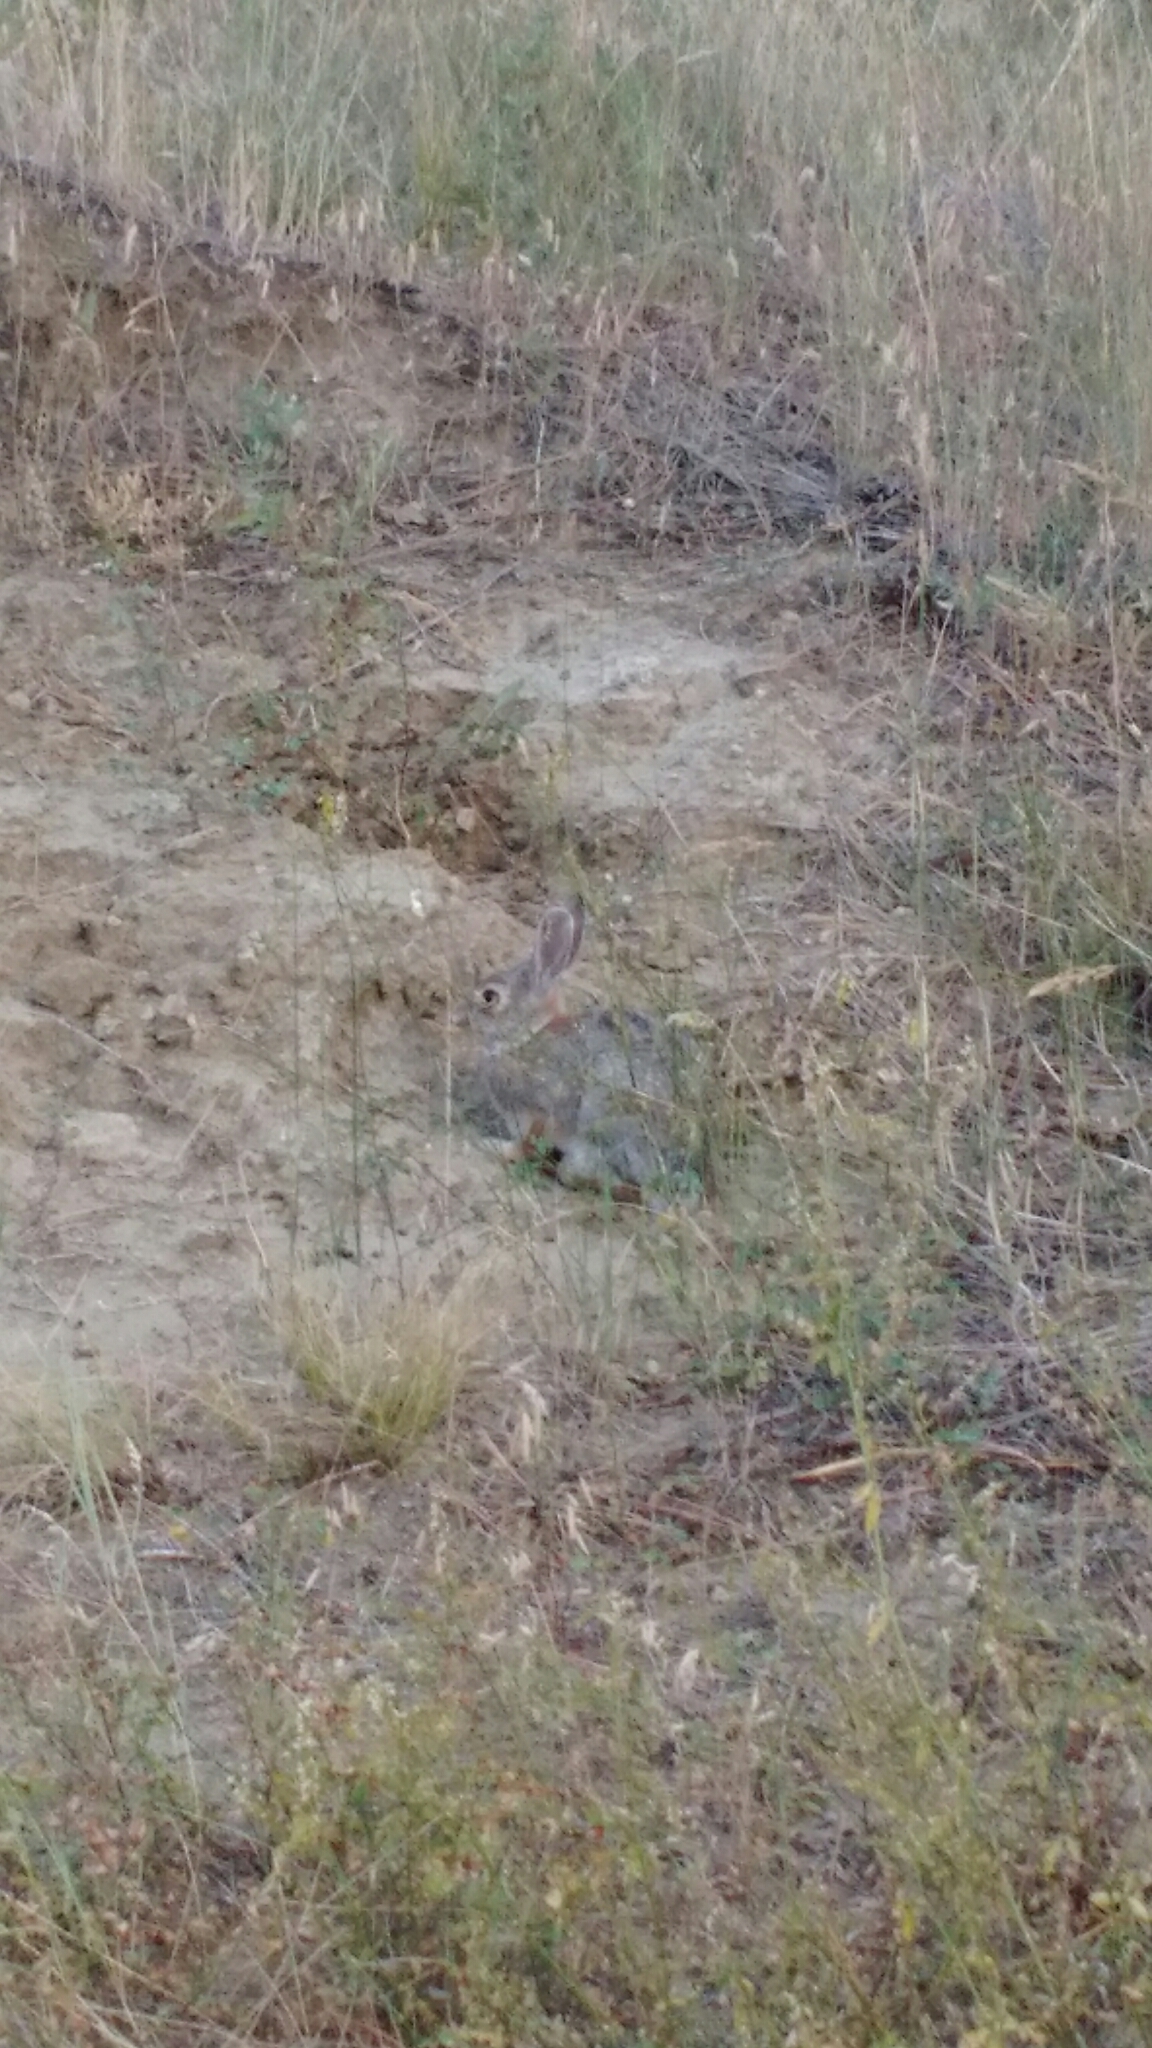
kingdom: Animalia
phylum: Chordata
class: Mammalia
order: Lagomorpha
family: Leporidae
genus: Sylvilagus
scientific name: Sylvilagus audubonii
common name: Desert cottontail
